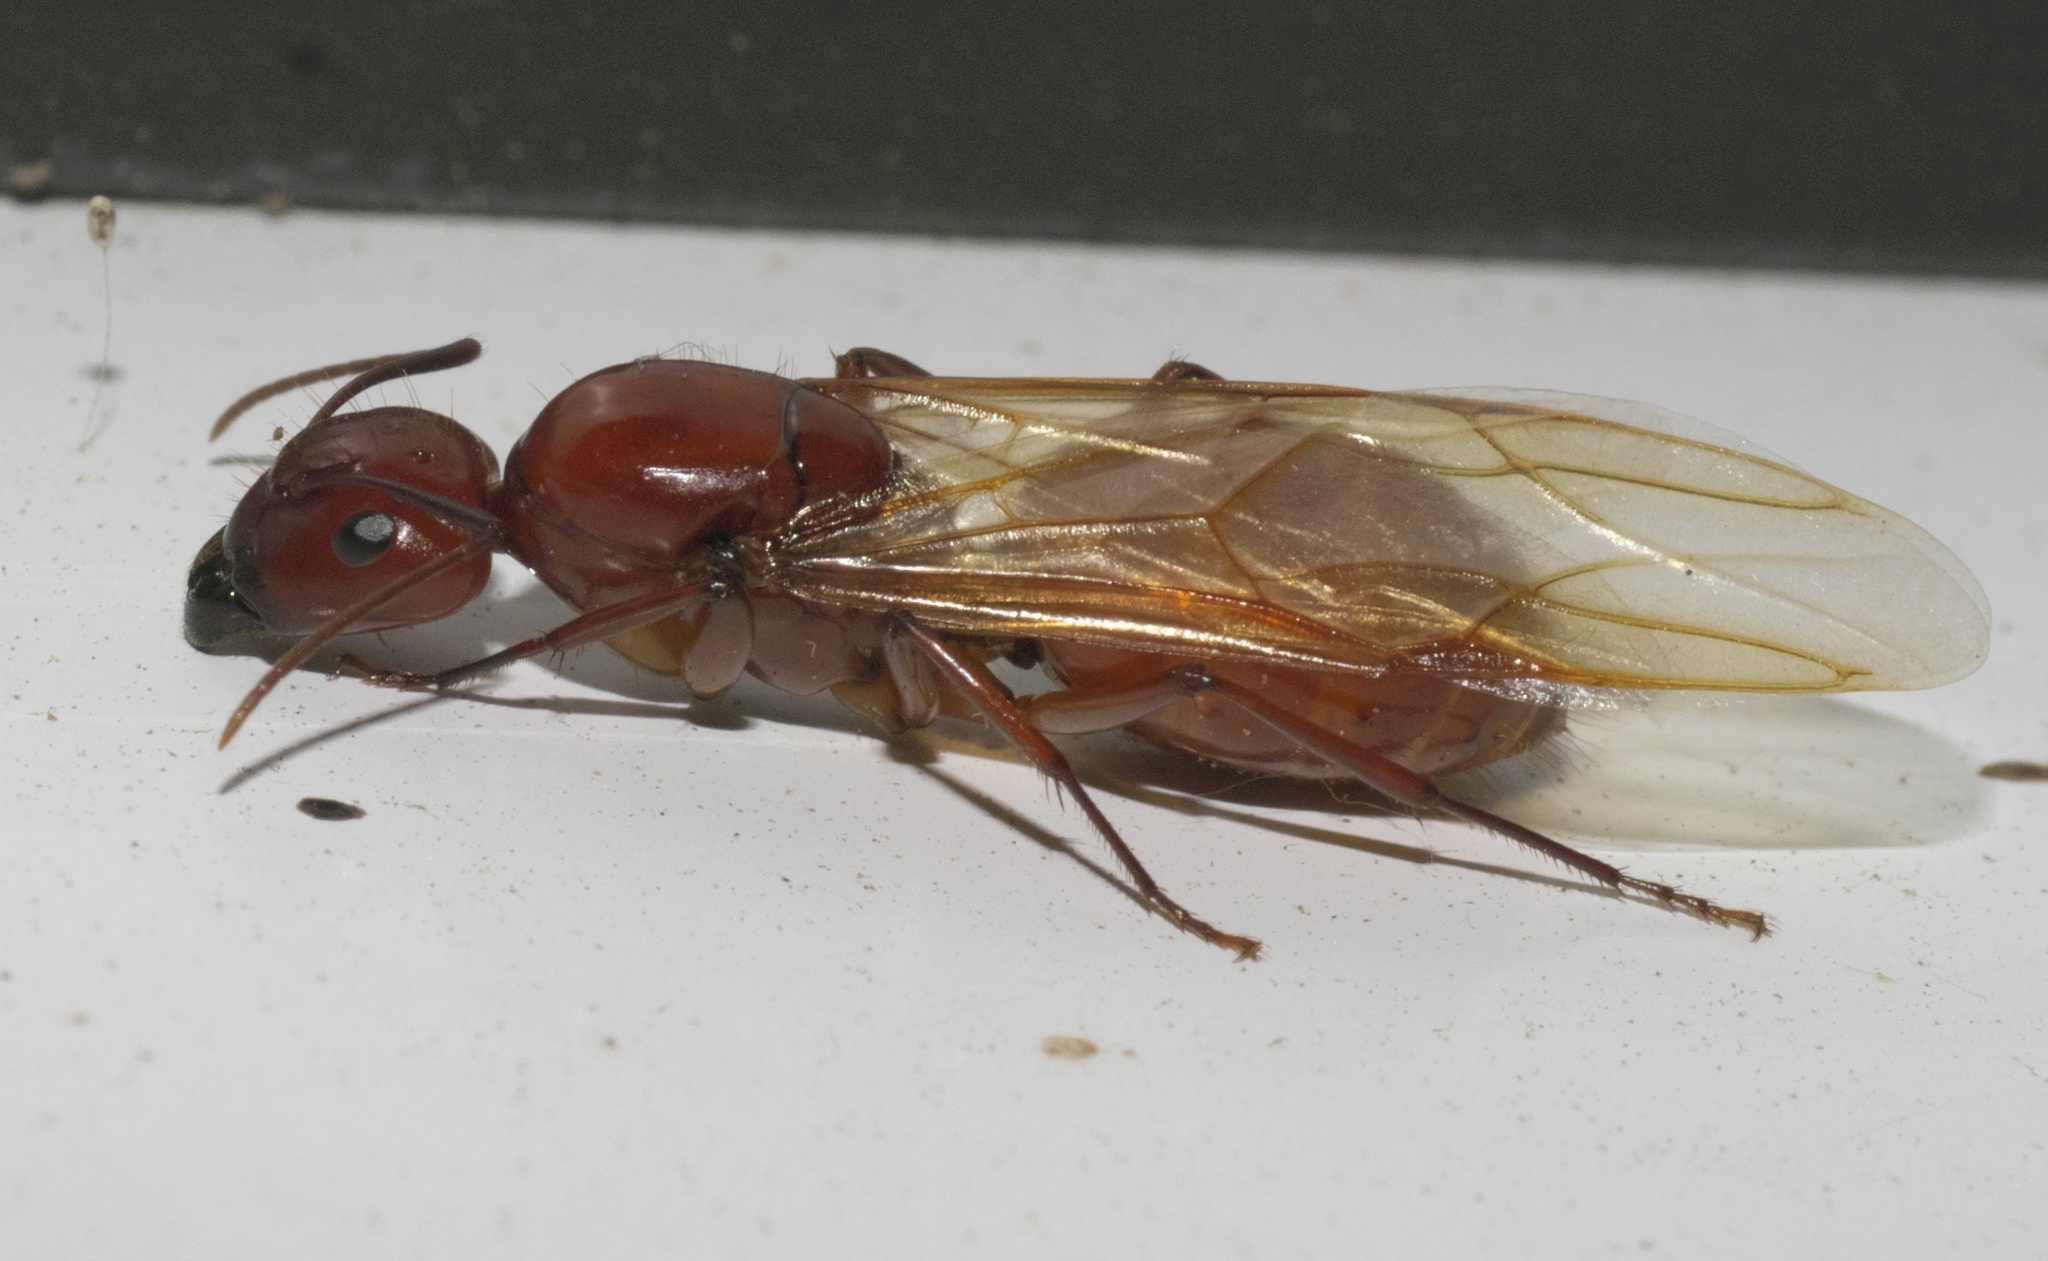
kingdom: Animalia
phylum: Arthropoda
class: Insecta
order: Hymenoptera
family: Formicidae
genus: Camponotus
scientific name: Camponotus castaneus
